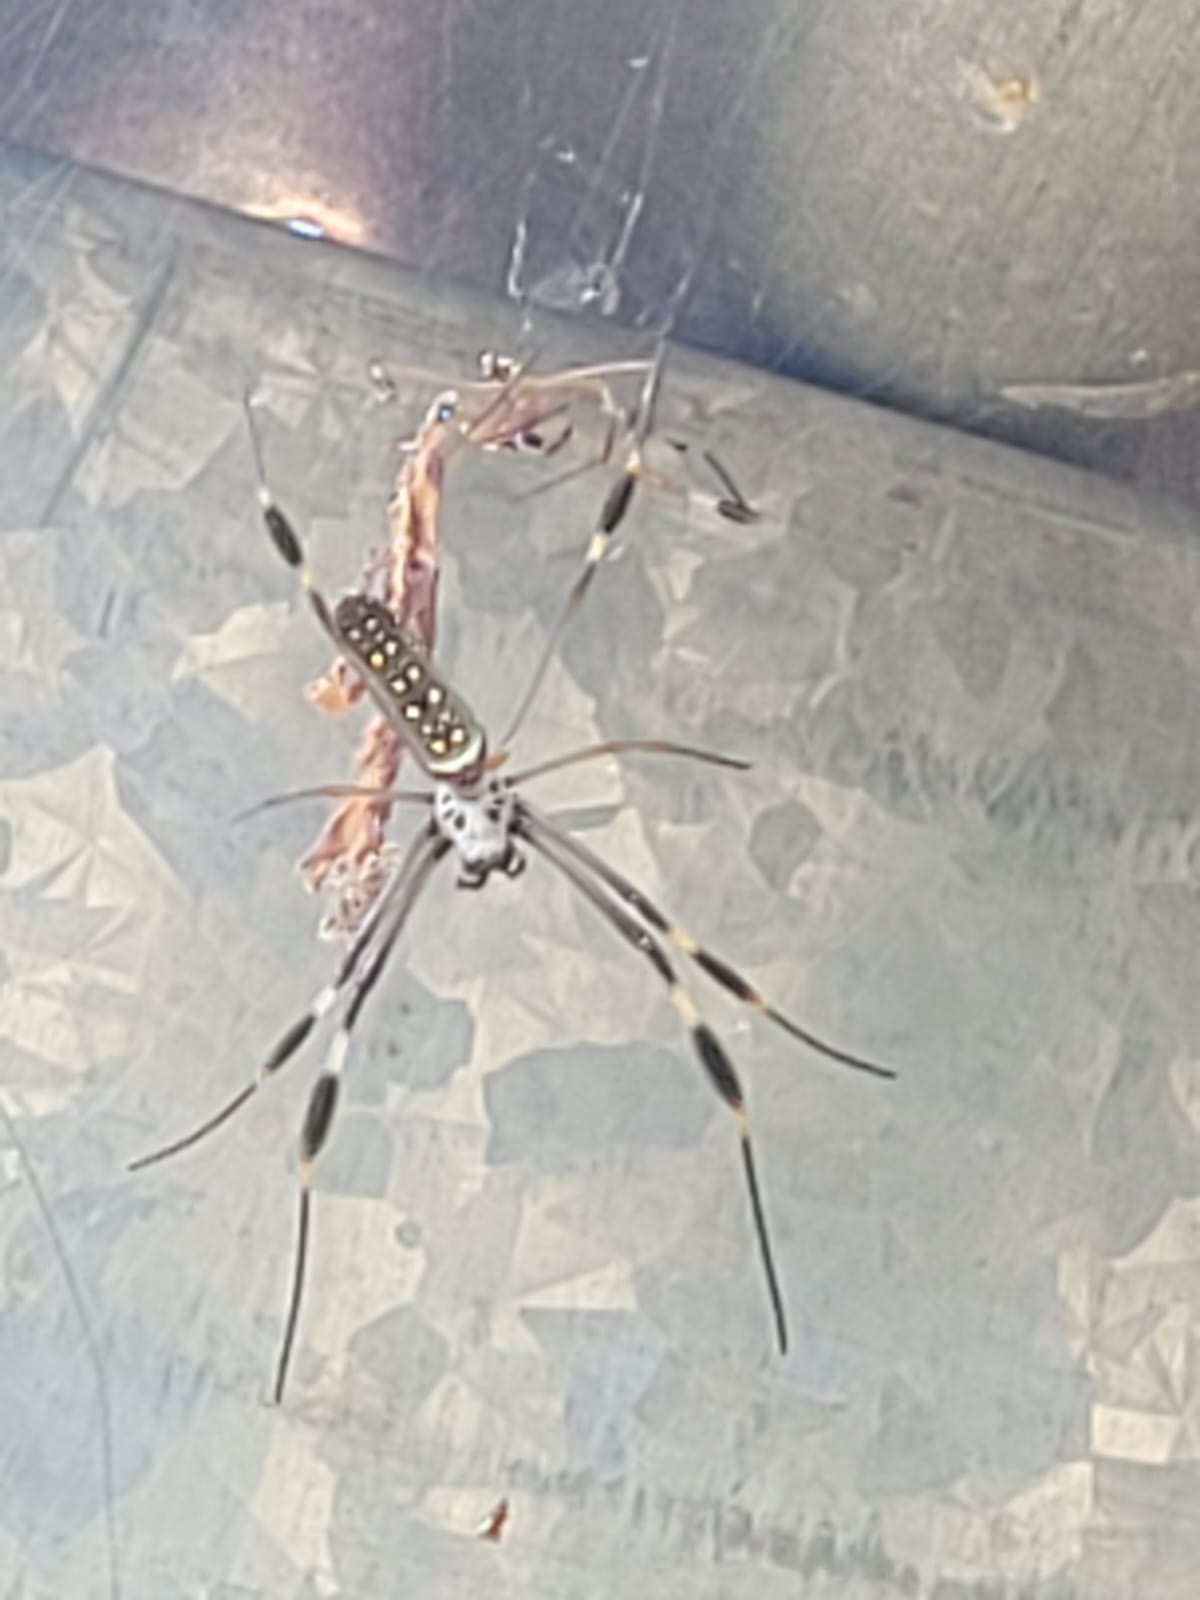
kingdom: Animalia
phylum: Arthropoda
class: Arachnida
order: Araneae
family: Araneidae
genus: Trichonephila
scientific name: Trichonephila clavipes
